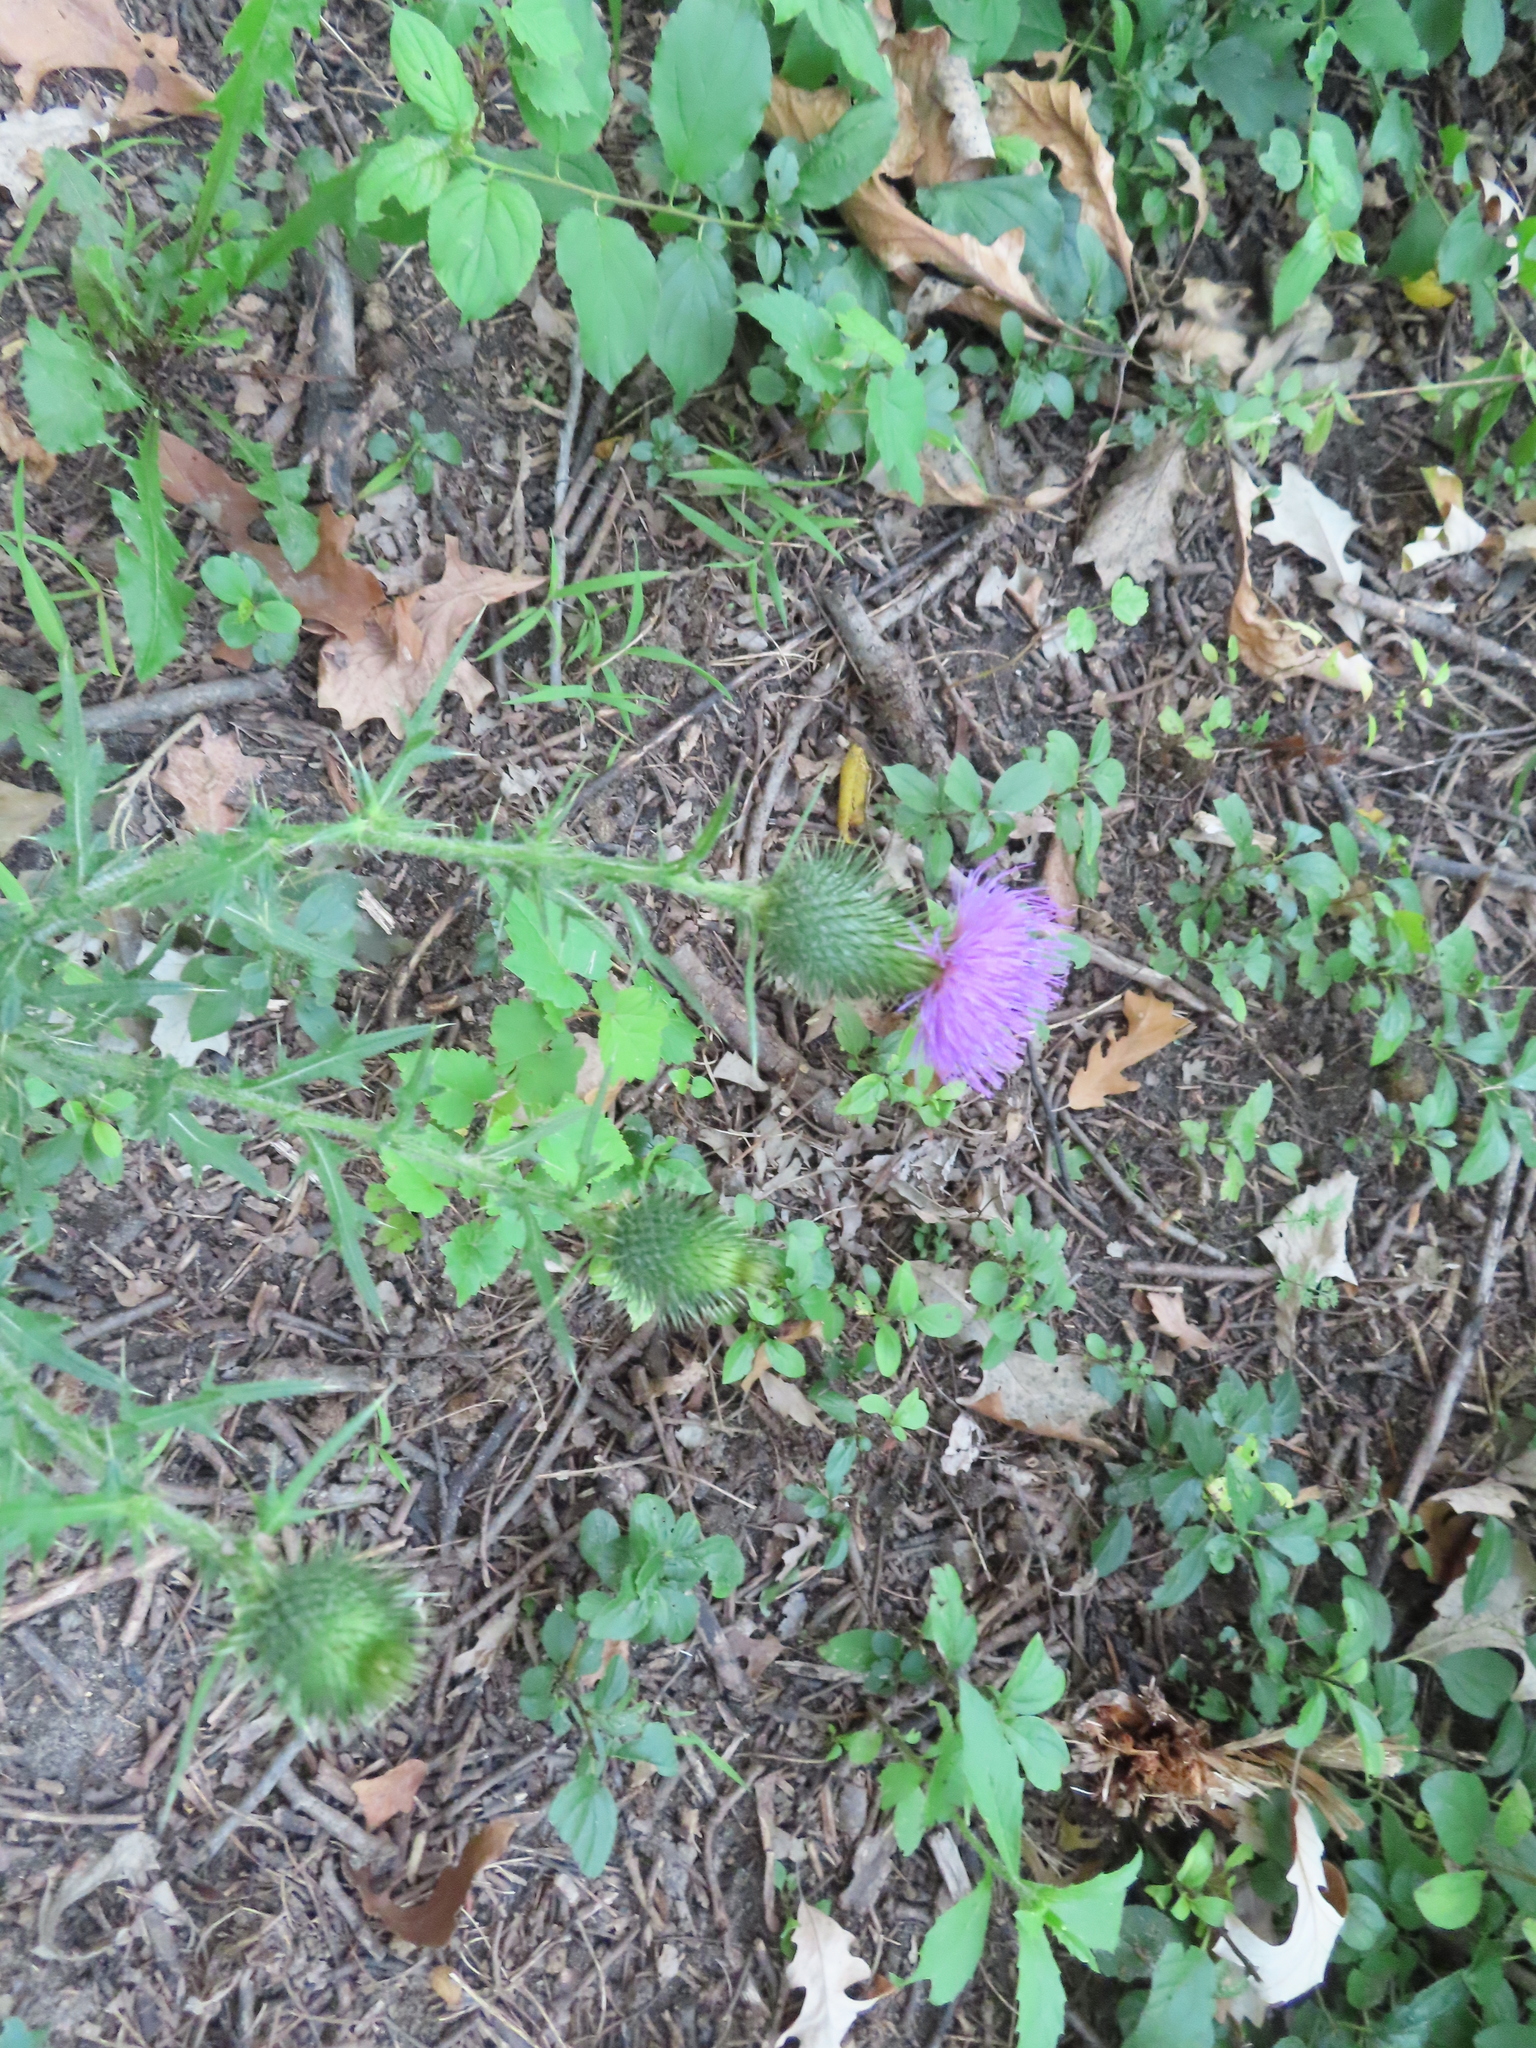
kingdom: Plantae
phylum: Tracheophyta
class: Magnoliopsida
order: Asterales
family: Asteraceae
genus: Cirsium
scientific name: Cirsium vulgare
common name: Bull thistle
